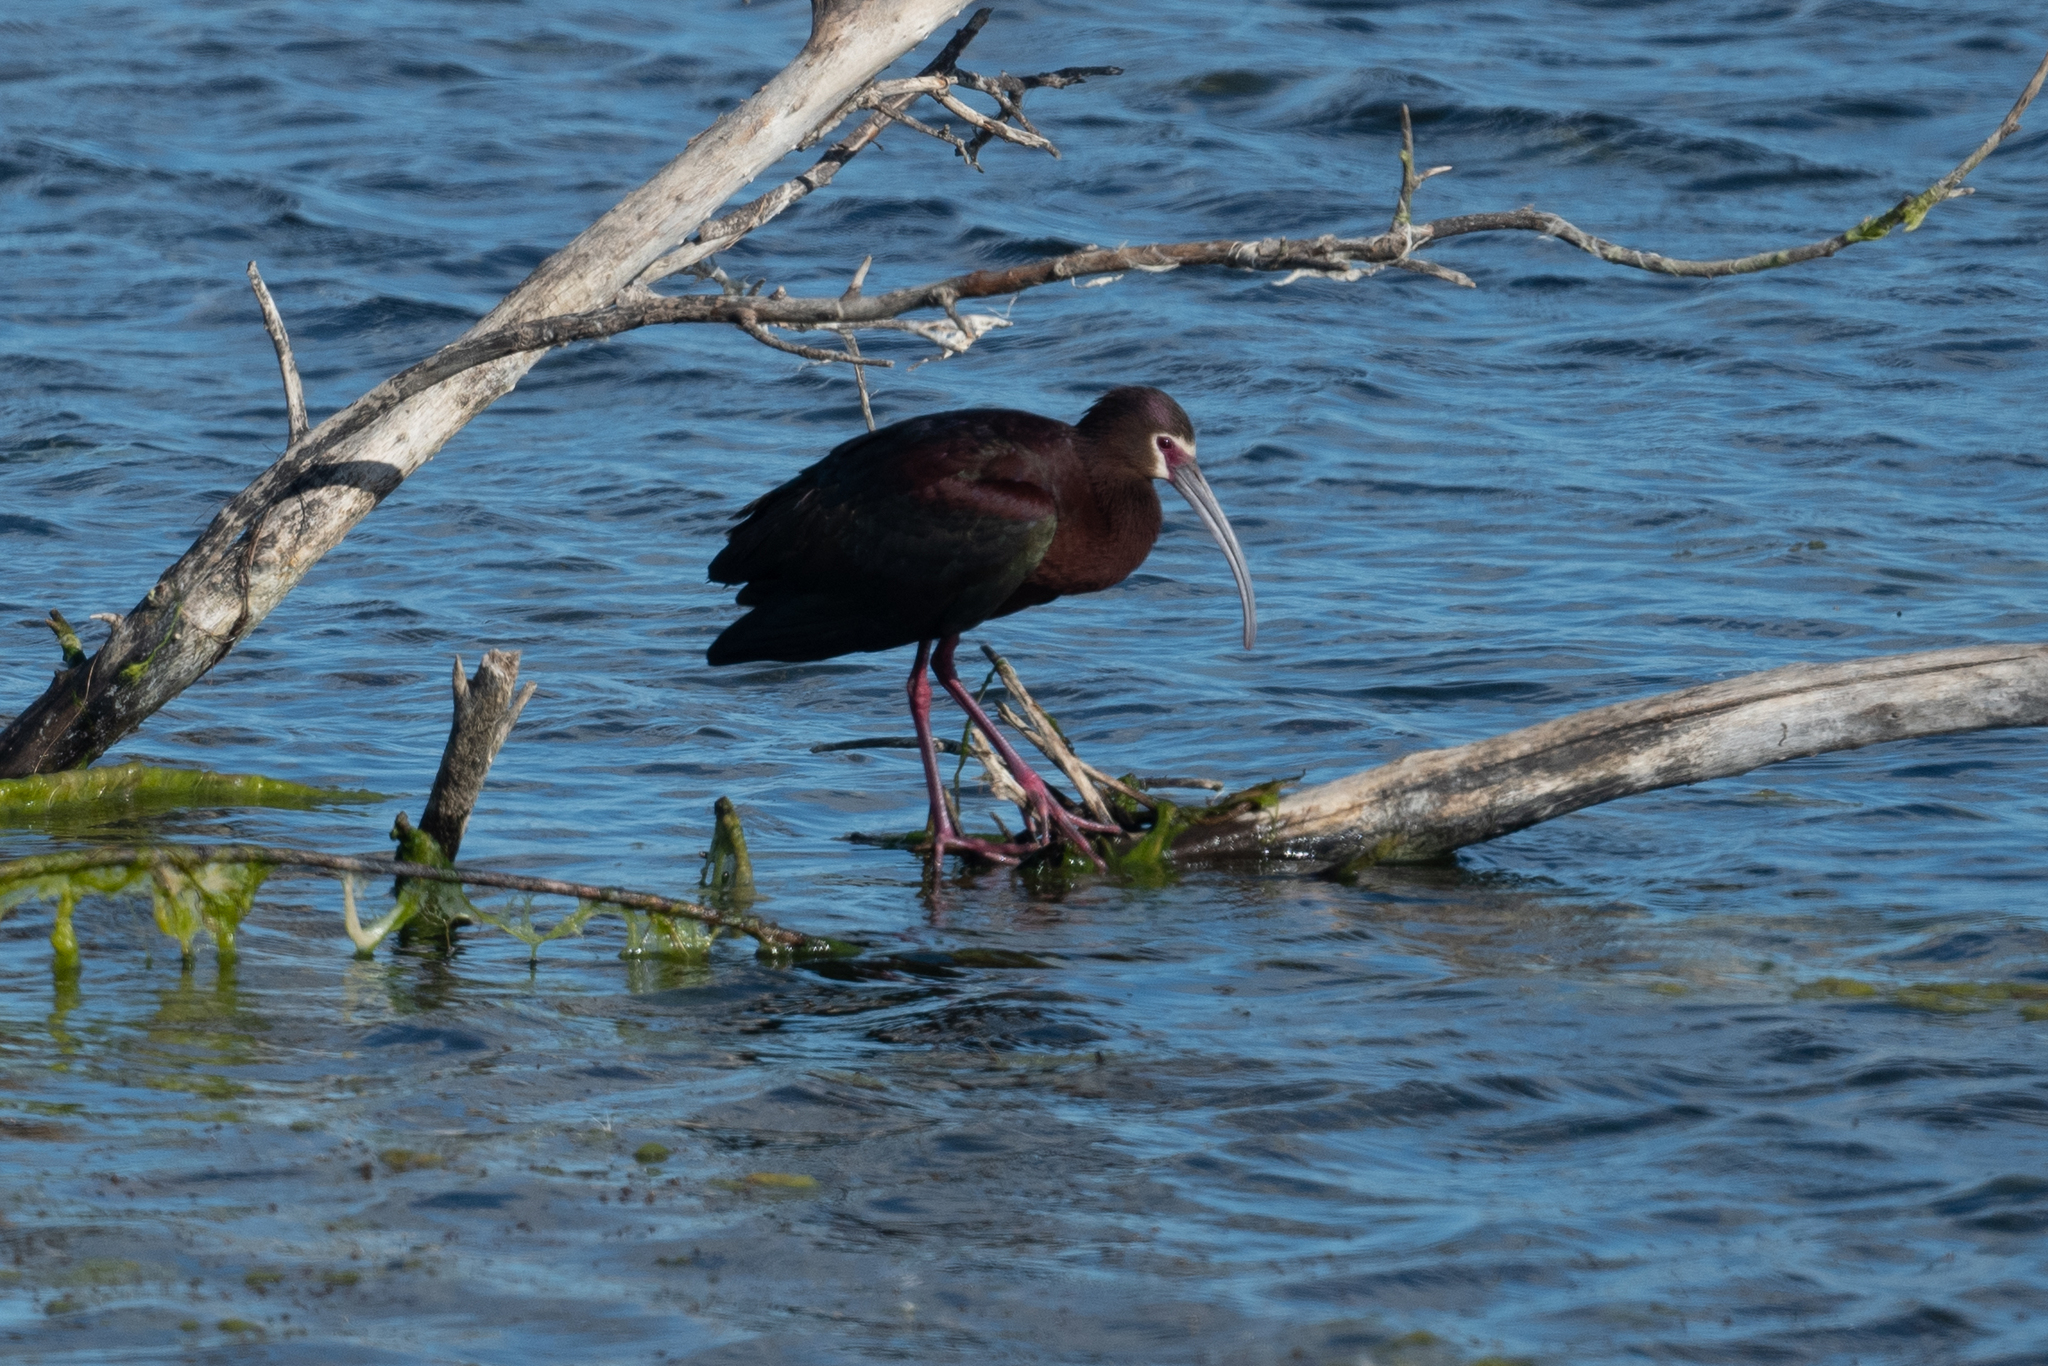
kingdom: Animalia
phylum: Chordata
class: Aves
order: Pelecaniformes
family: Threskiornithidae
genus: Plegadis
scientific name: Plegadis chihi
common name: White-faced ibis
